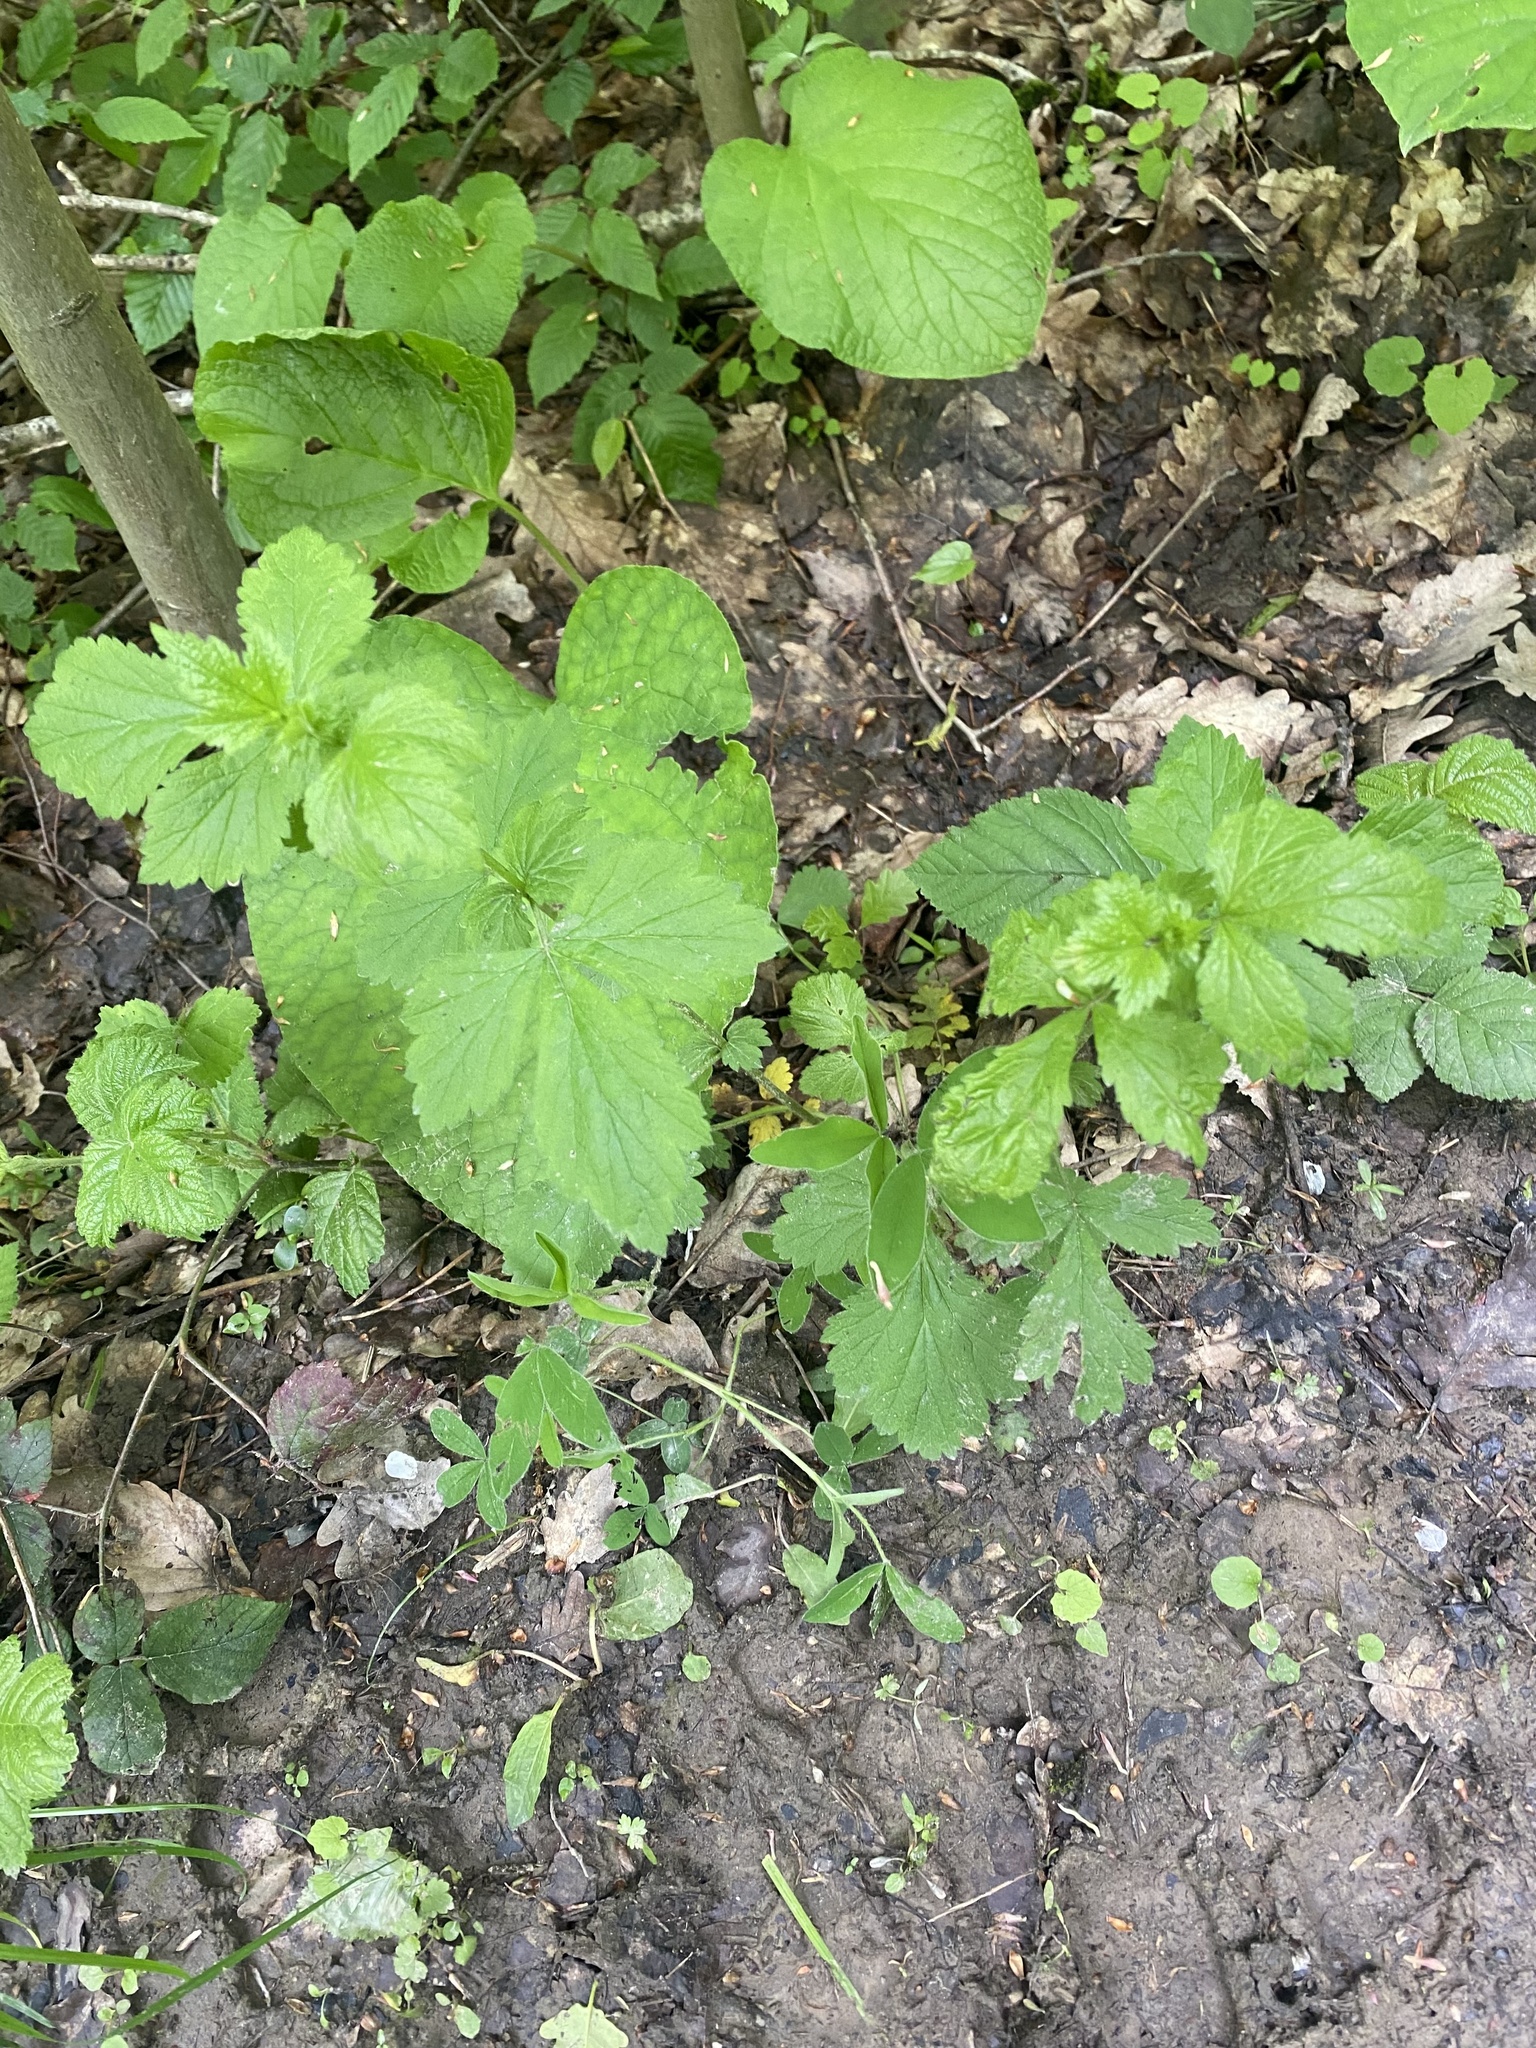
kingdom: Plantae
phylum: Tracheophyta
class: Magnoliopsida
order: Rosales
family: Rosaceae
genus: Geum
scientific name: Geum urbanum
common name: Wood avens
